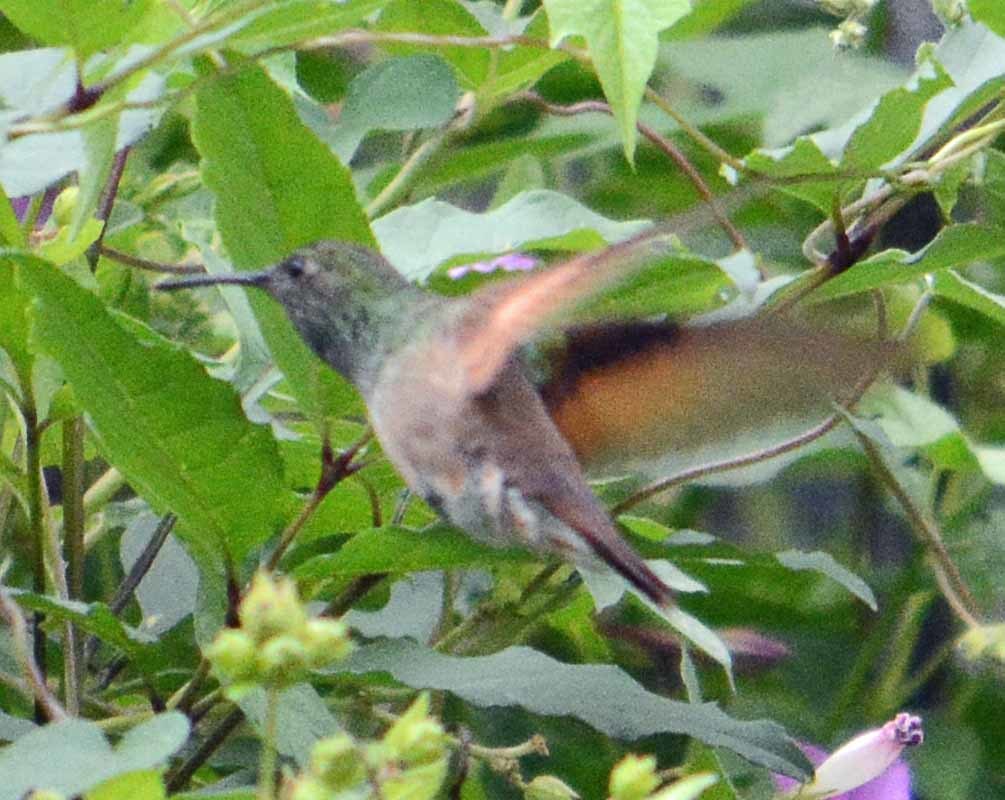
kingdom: Animalia
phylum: Chordata
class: Aves
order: Apodiformes
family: Trochilidae
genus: Saucerottia
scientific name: Saucerottia beryllina
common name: Berylline hummingbird
